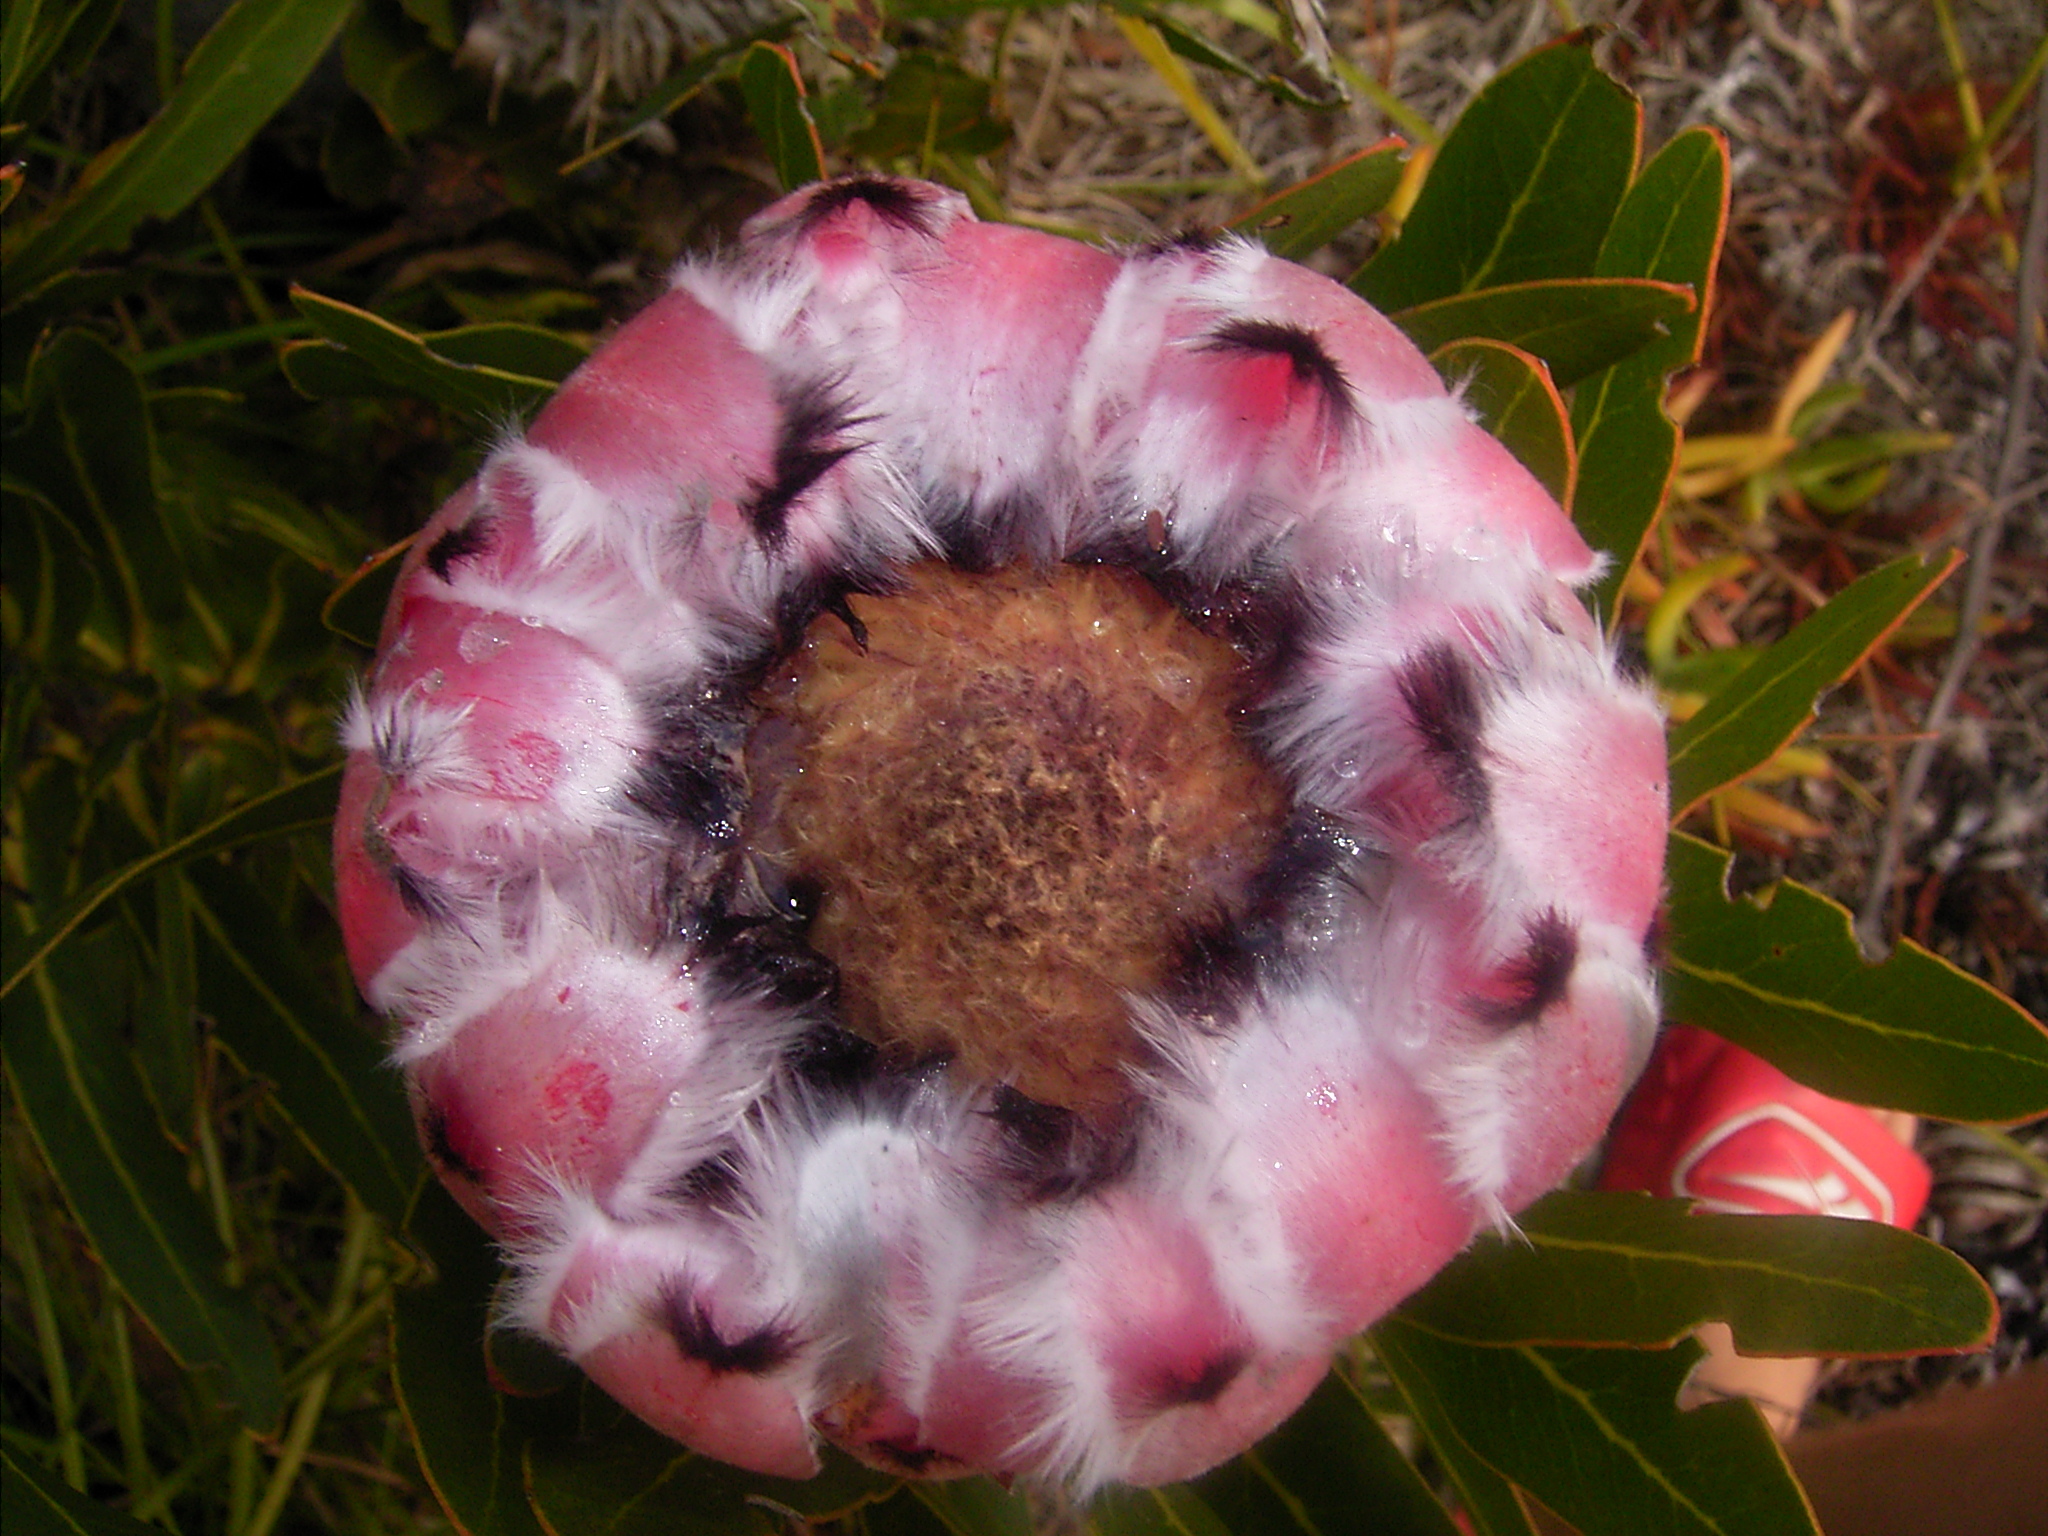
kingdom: Plantae
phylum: Tracheophyta
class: Magnoliopsida
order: Proteales
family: Proteaceae
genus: Protea
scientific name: Protea neriifolia
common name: Blue sugarbush
